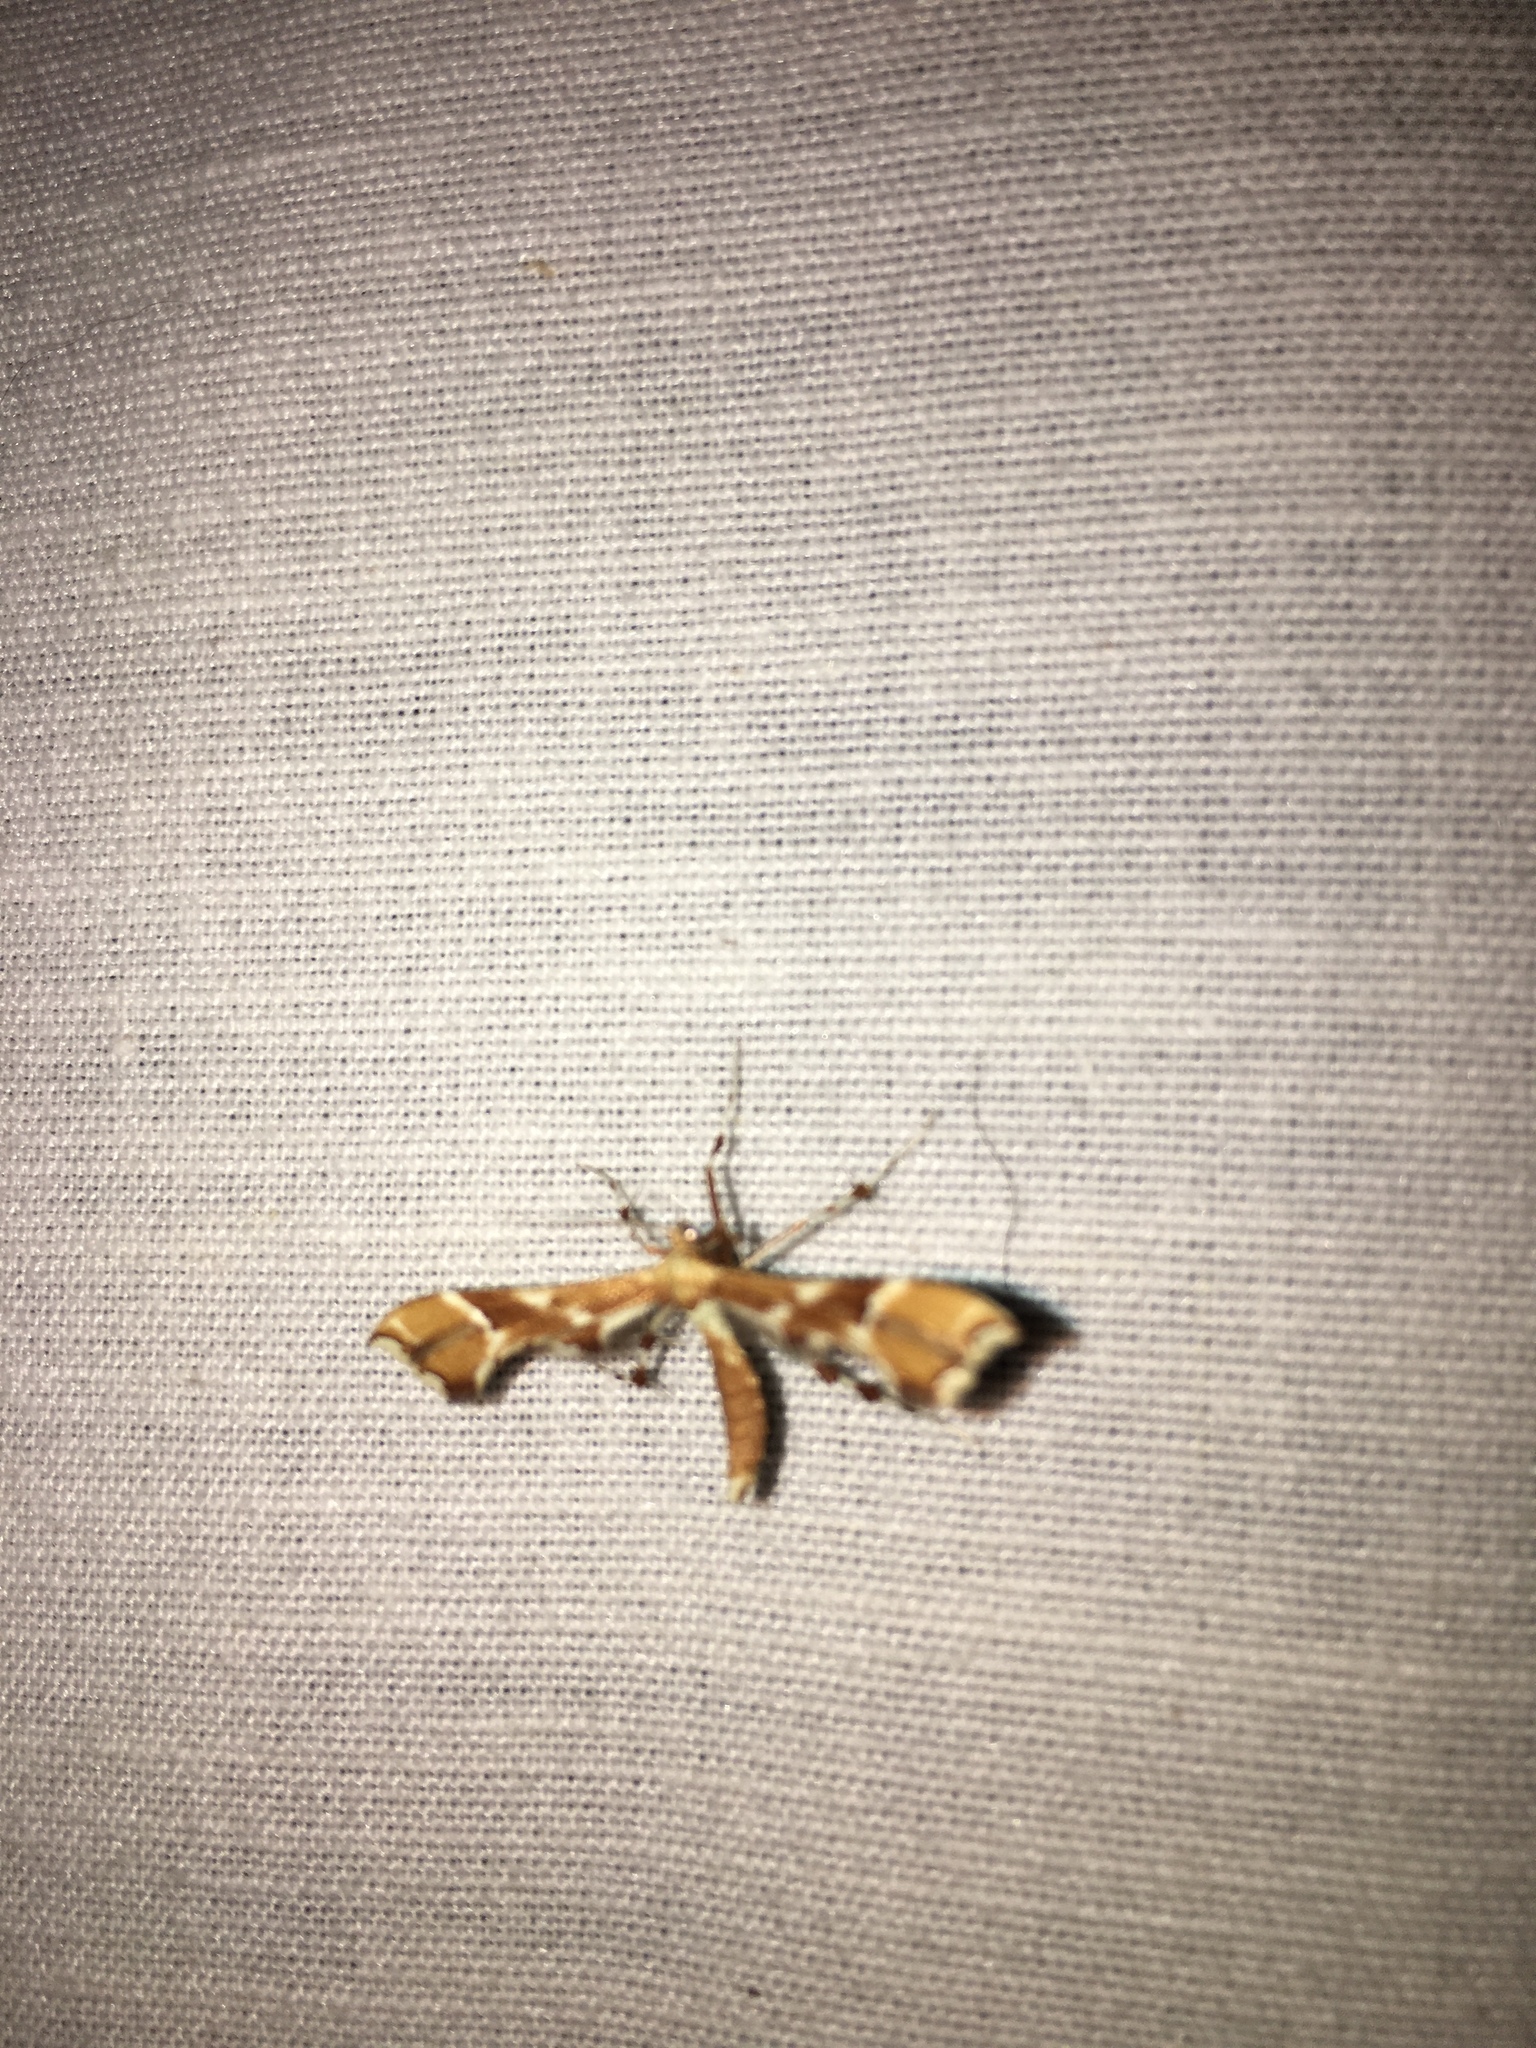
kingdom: Animalia
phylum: Arthropoda
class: Insecta
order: Lepidoptera
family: Pterophoridae
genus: Cnaemidophorus
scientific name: Cnaemidophorus rhododactyla
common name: Rose plume
